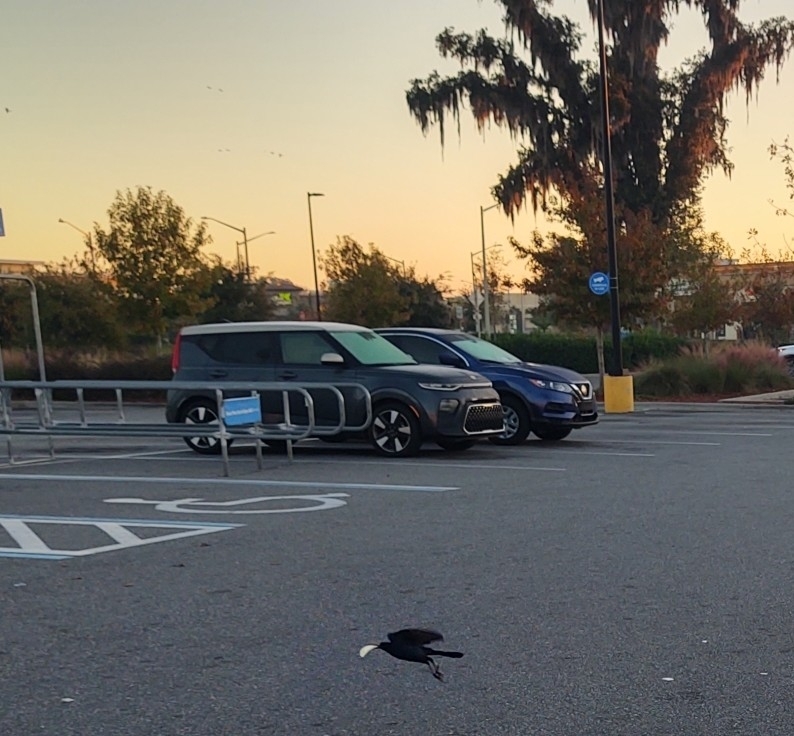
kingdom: Animalia
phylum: Chordata
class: Aves
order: Passeriformes
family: Icteridae
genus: Quiscalus
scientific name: Quiscalus major
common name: Boat-tailed grackle
